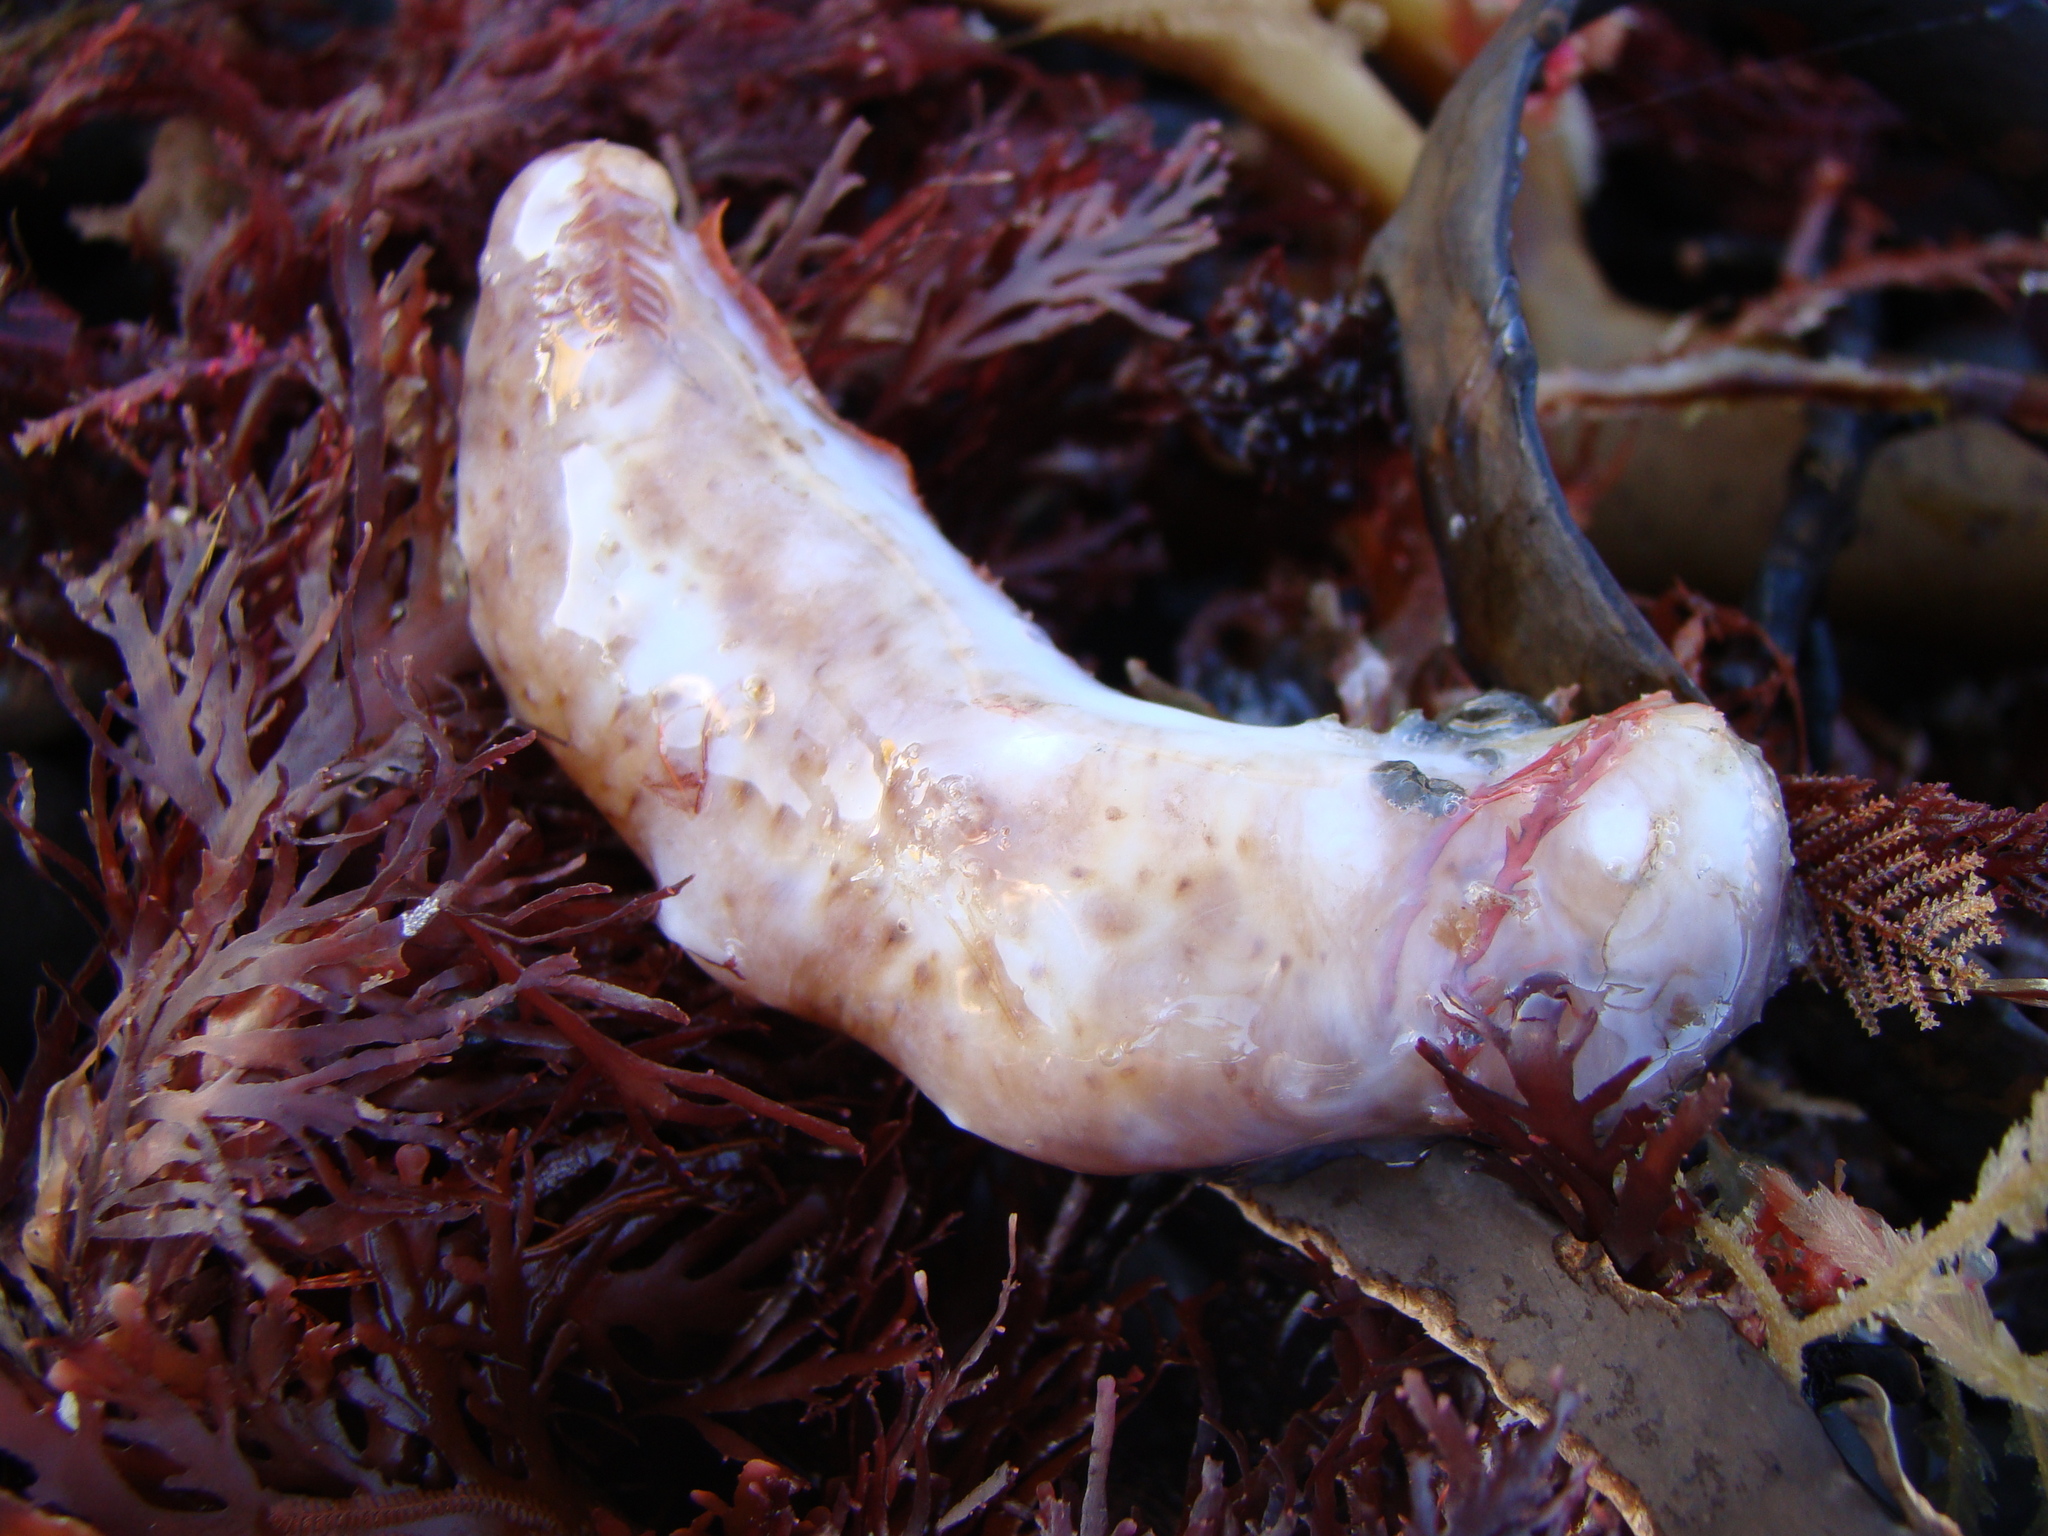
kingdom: Animalia
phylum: Echinodermata
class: Holothuroidea
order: Synallactida
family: Stichopodidae
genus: Australostichopus
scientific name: Australostichopus mollis
